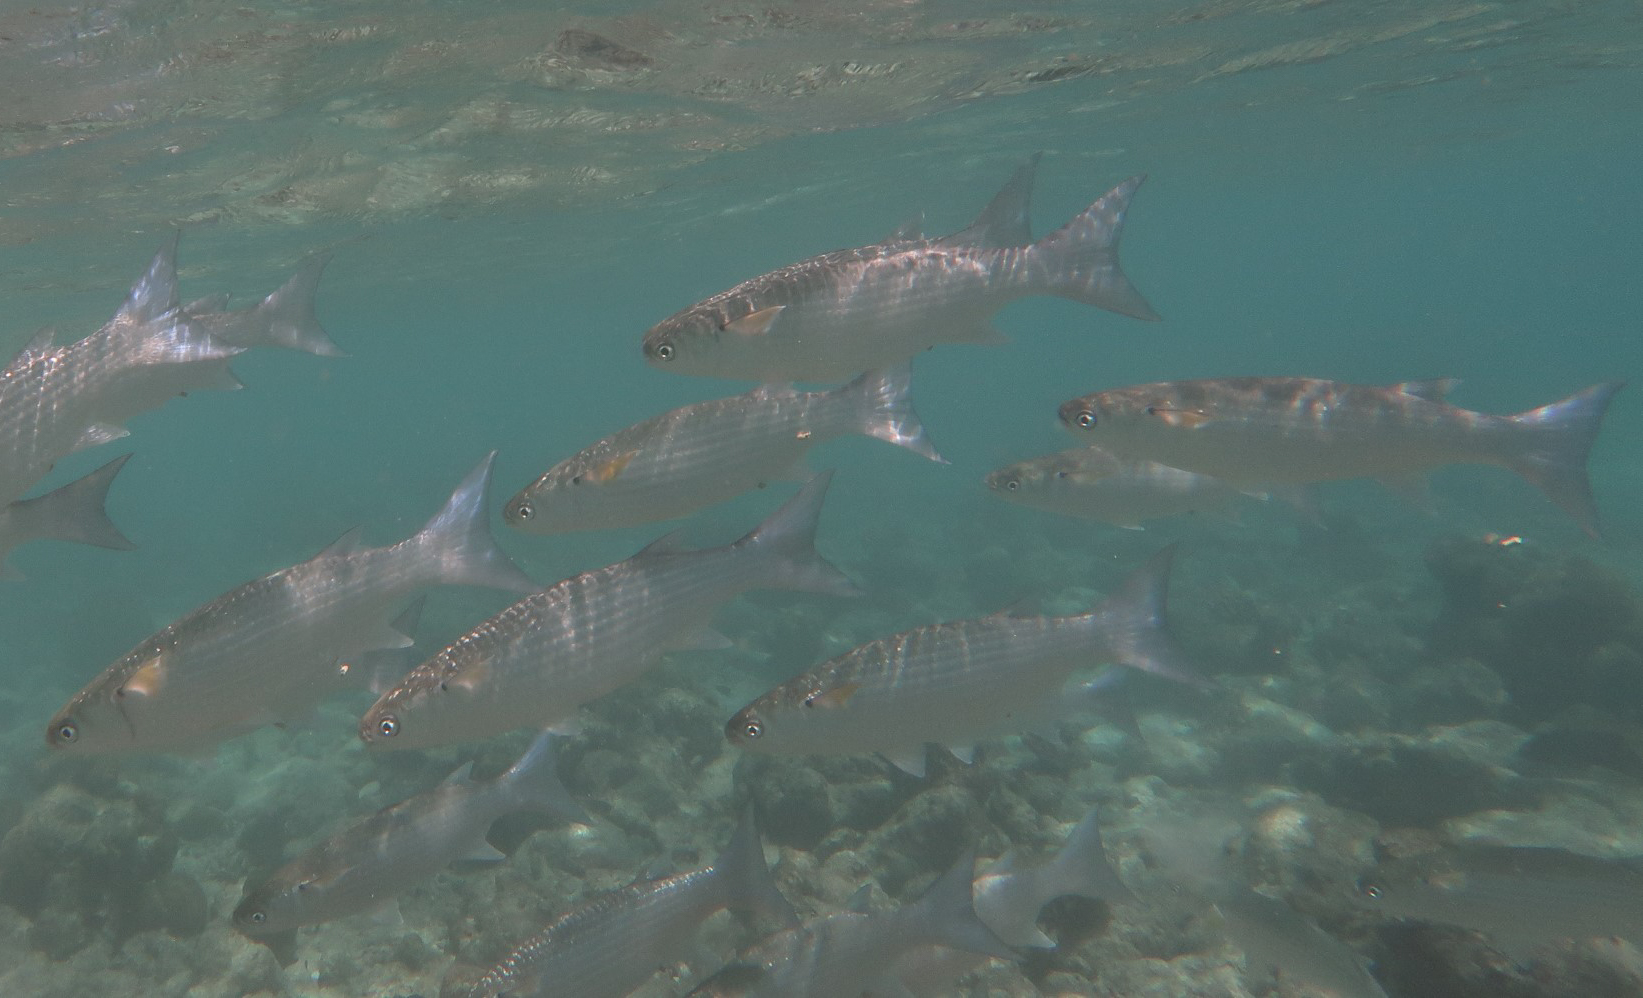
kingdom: Animalia
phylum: Chordata
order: Mugiliformes
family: Mugilidae
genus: Crenimugil
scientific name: Crenimugil crenilabis
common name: Fringelip mullet
